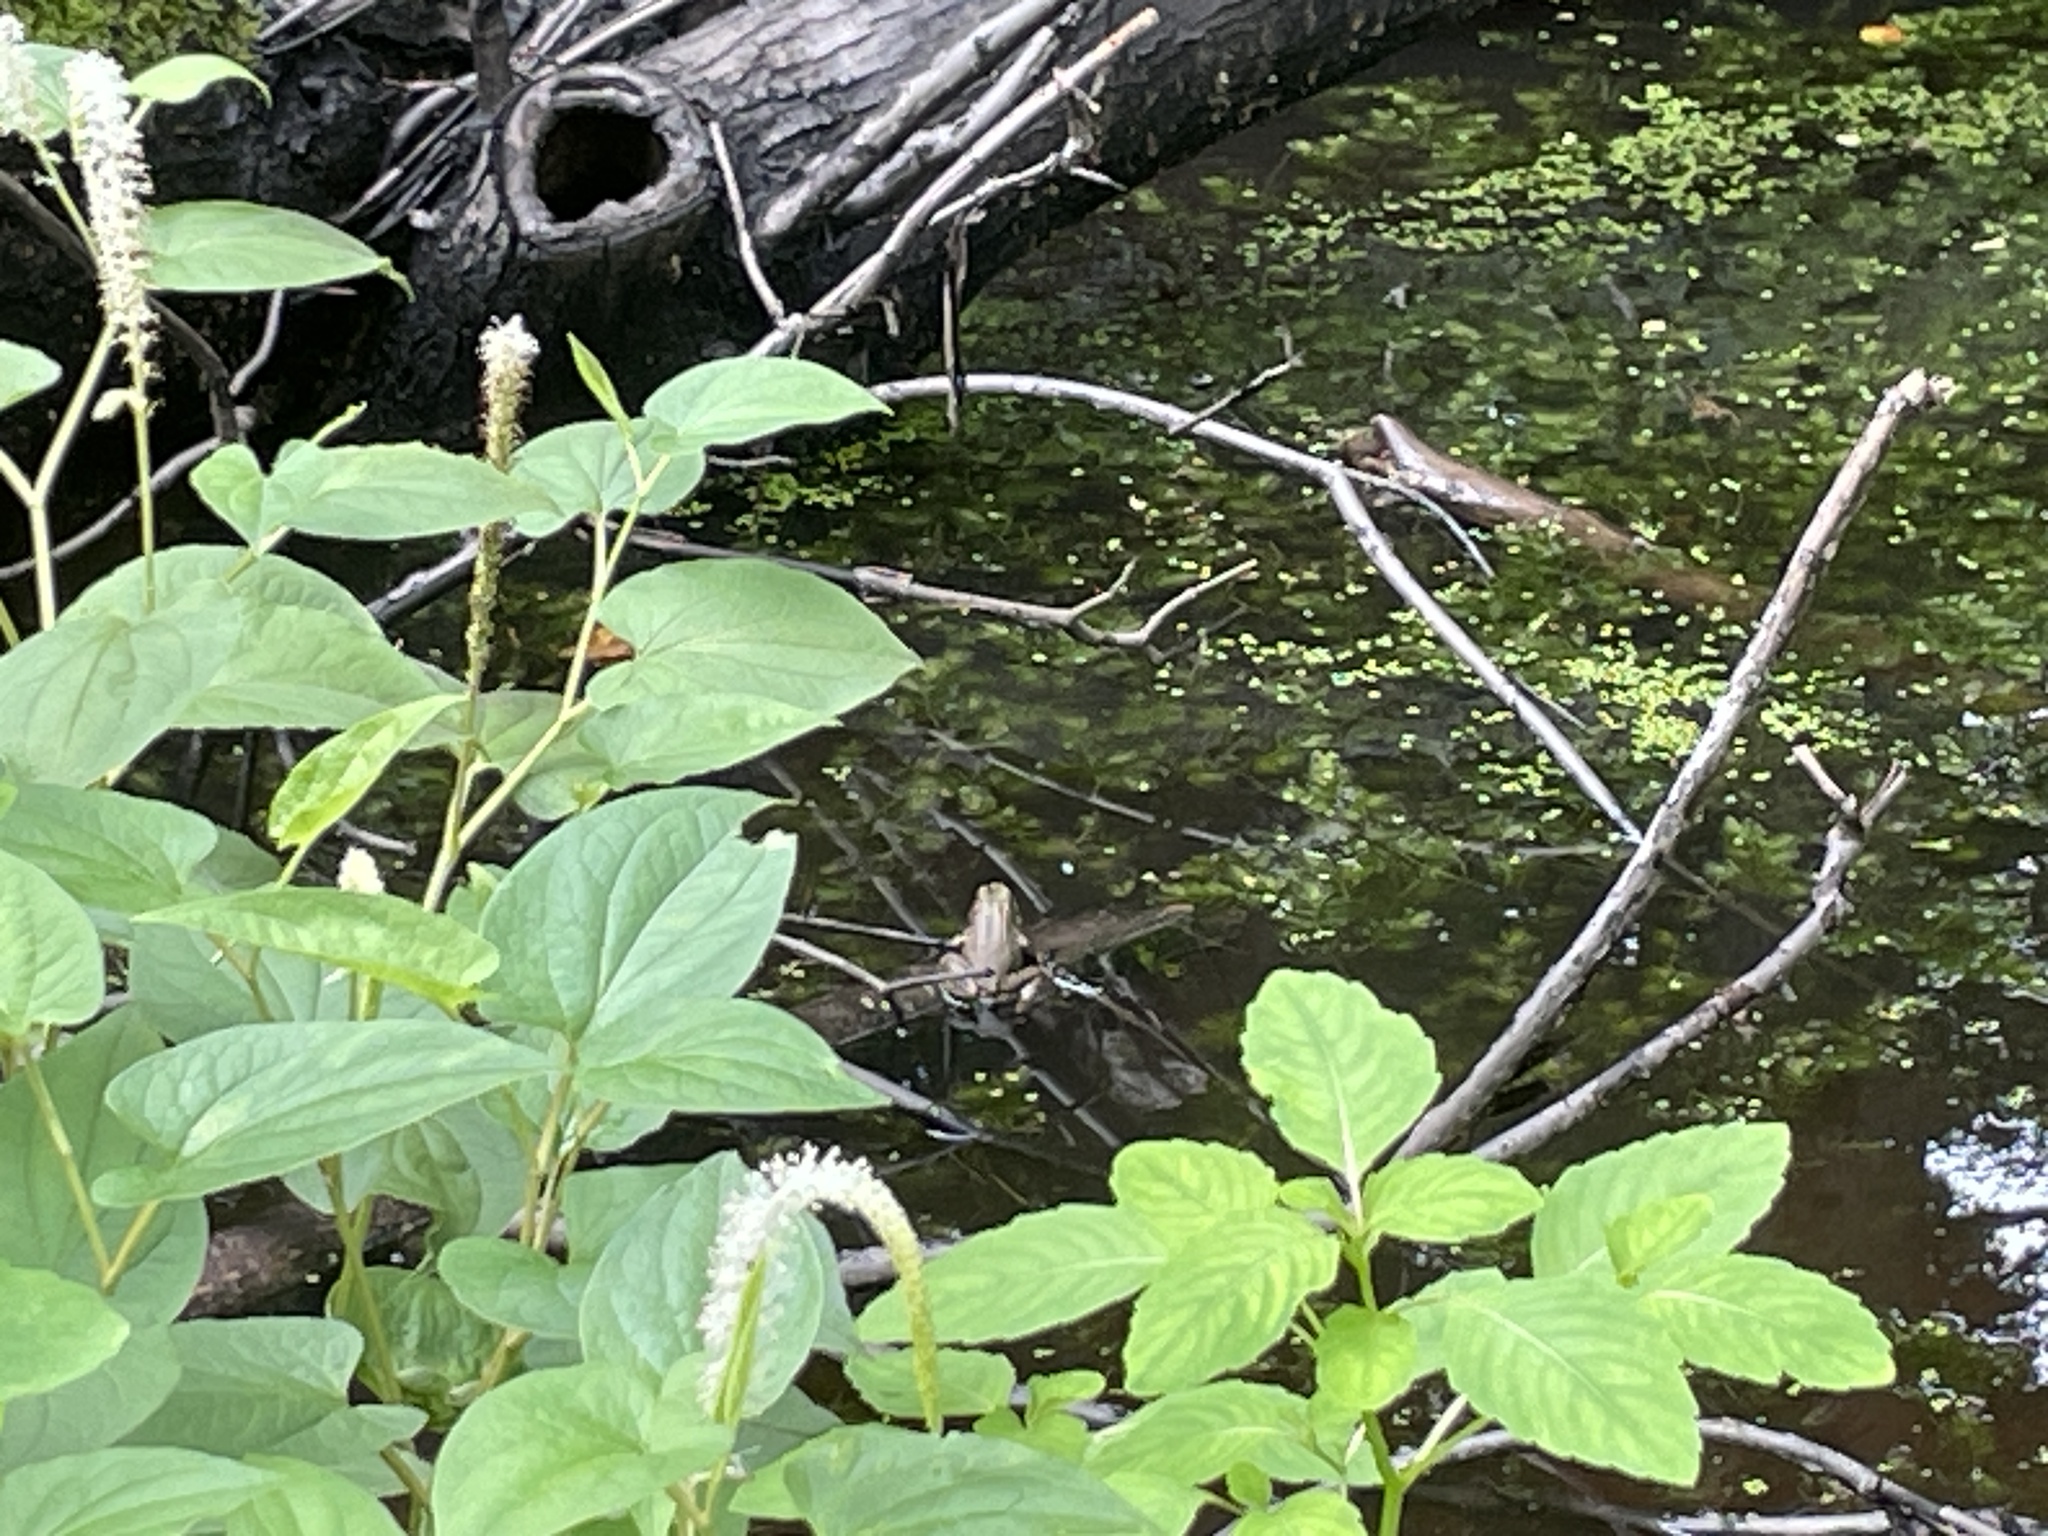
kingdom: Animalia
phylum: Chordata
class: Amphibia
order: Anura
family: Ranidae
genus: Lithobates
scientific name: Lithobates clamitans
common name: Green frog
